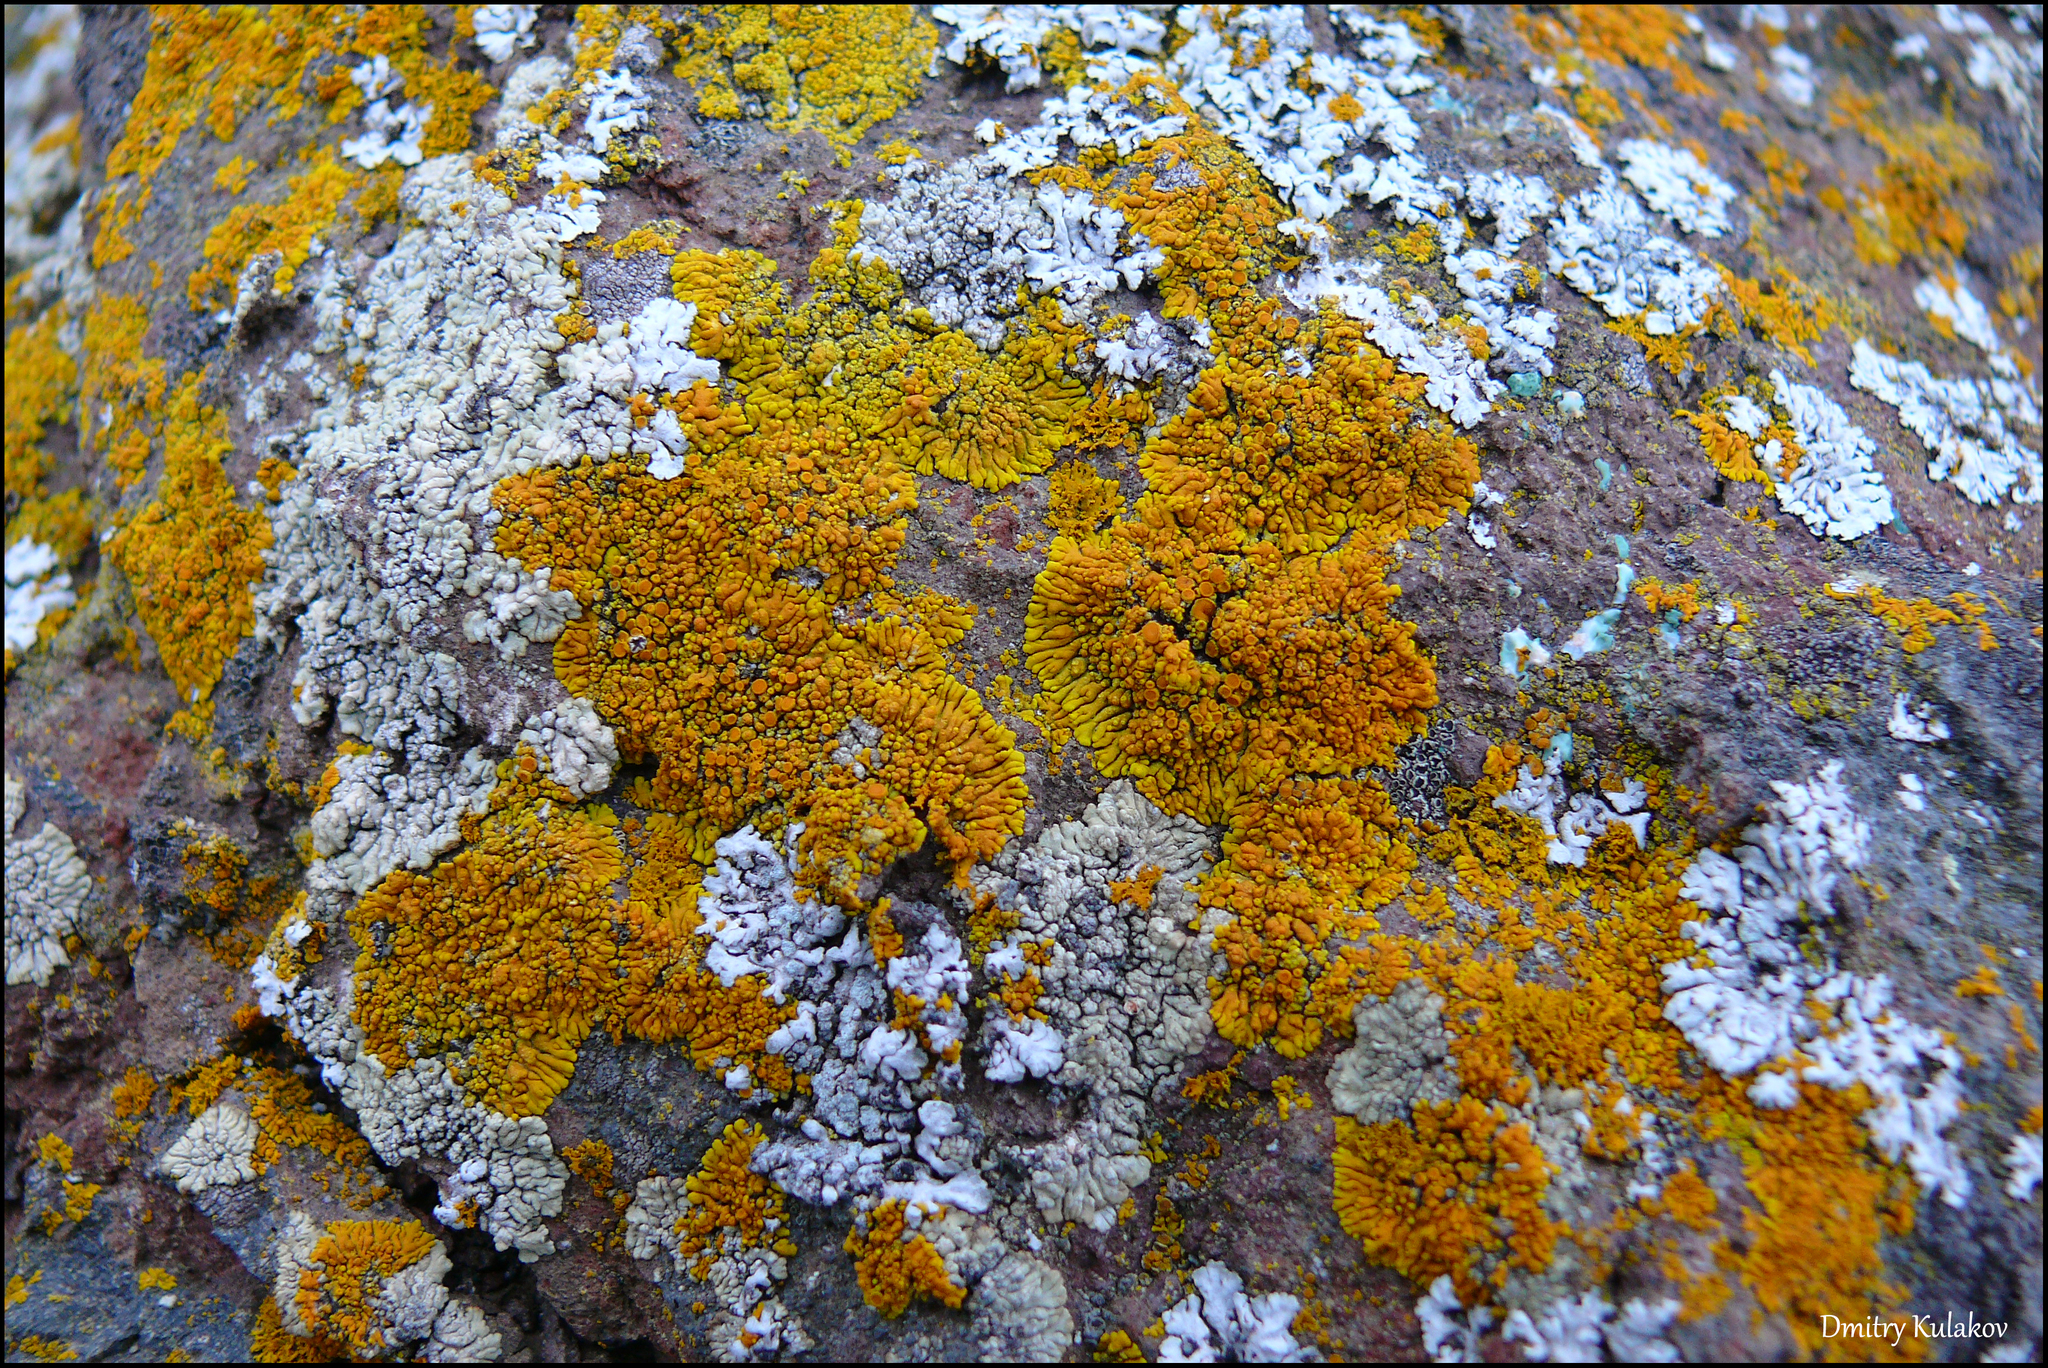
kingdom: Fungi
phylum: Ascomycota
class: Lecanoromycetes
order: Teloschistales
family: Teloschistaceae
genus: Xanthoria
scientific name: Xanthoria elegans
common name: Elegant sunburst lichen
